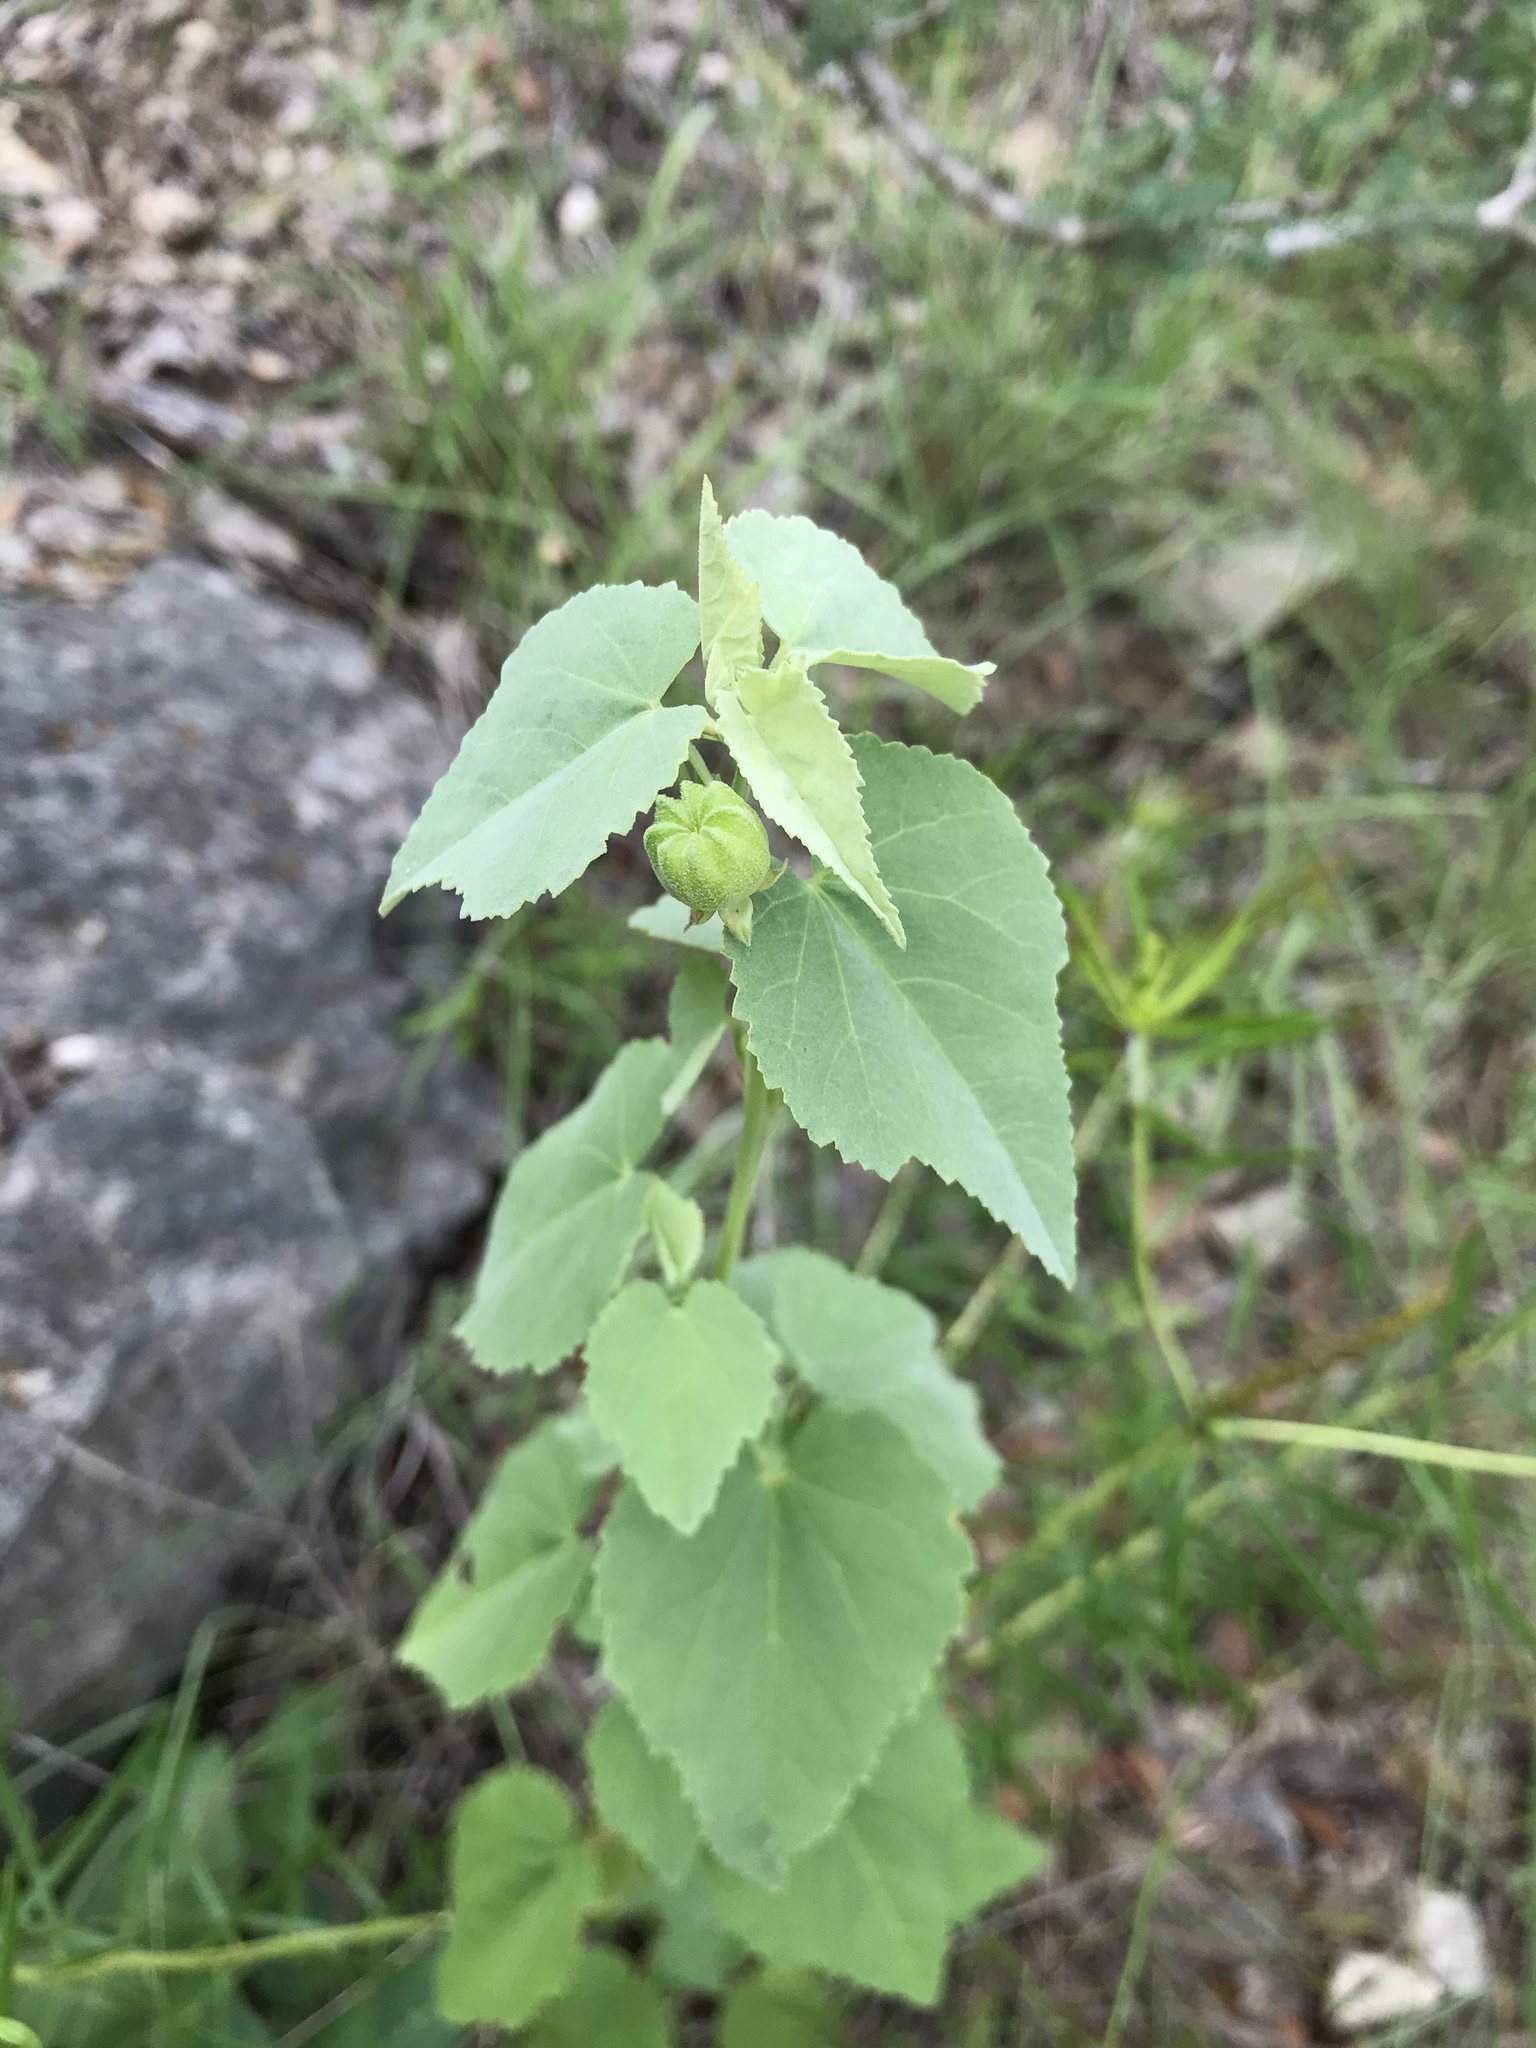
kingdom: Plantae
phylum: Tracheophyta
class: Magnoliopsida
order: Malvales
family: Malvaceae
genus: Abutilon
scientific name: Abutilon fruticosum
